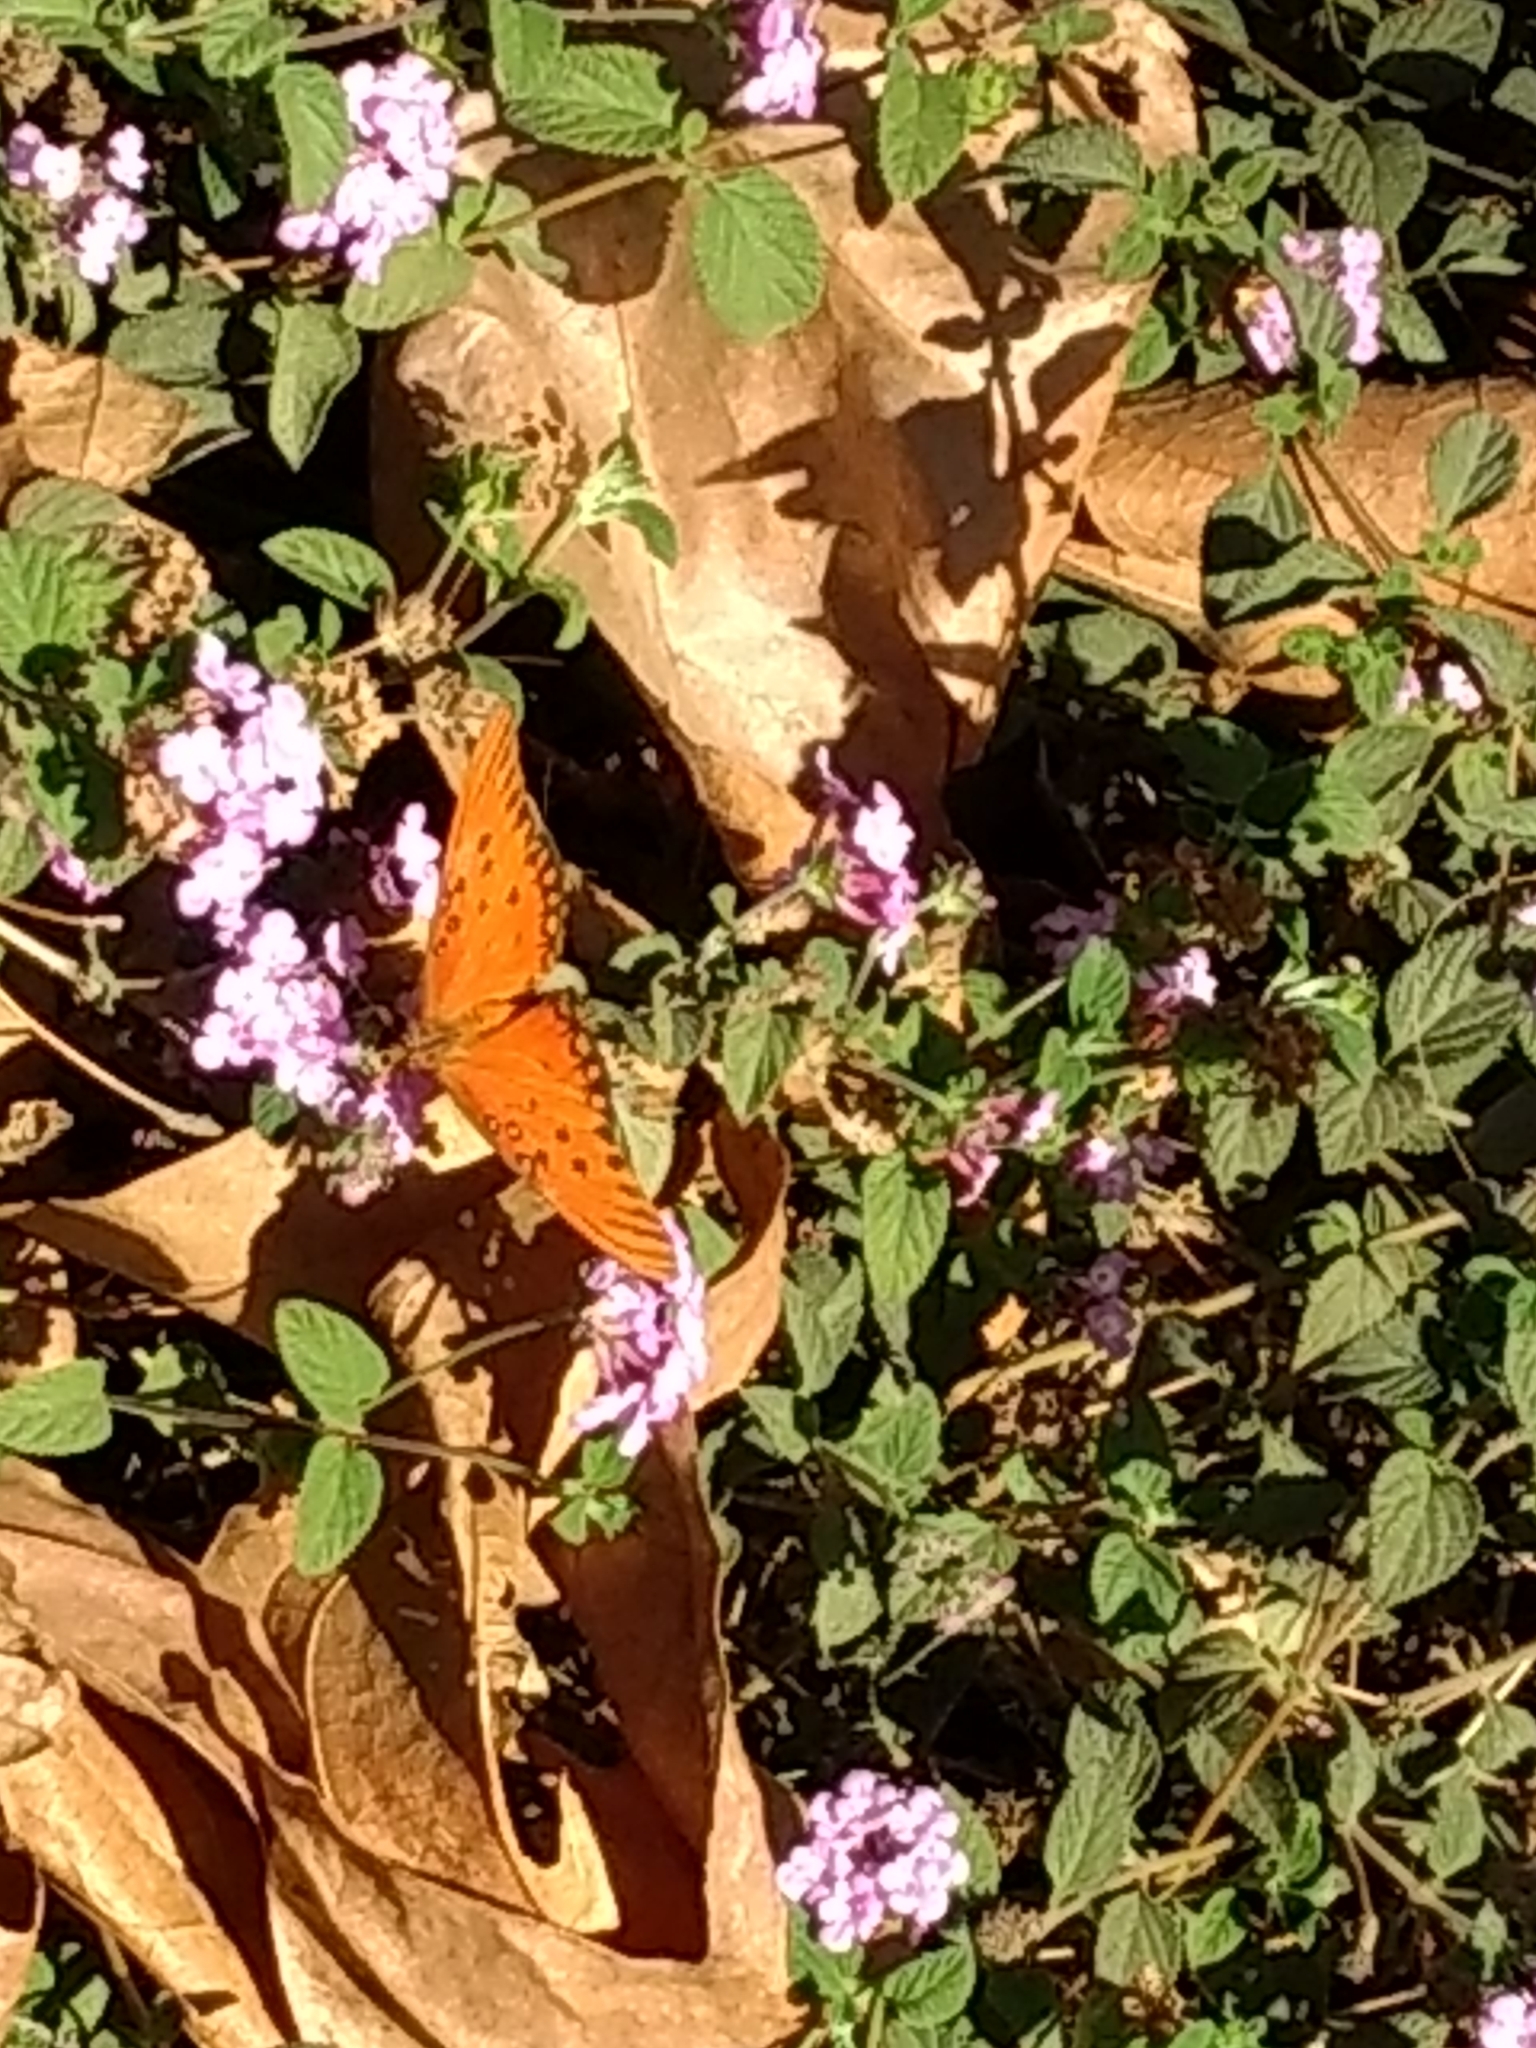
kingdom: Animalia
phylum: Arthropoda
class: Insecta
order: Lepidoptera
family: Nymphalidae
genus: Dione
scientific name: Dione vanillae
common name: Gulf fritillary
